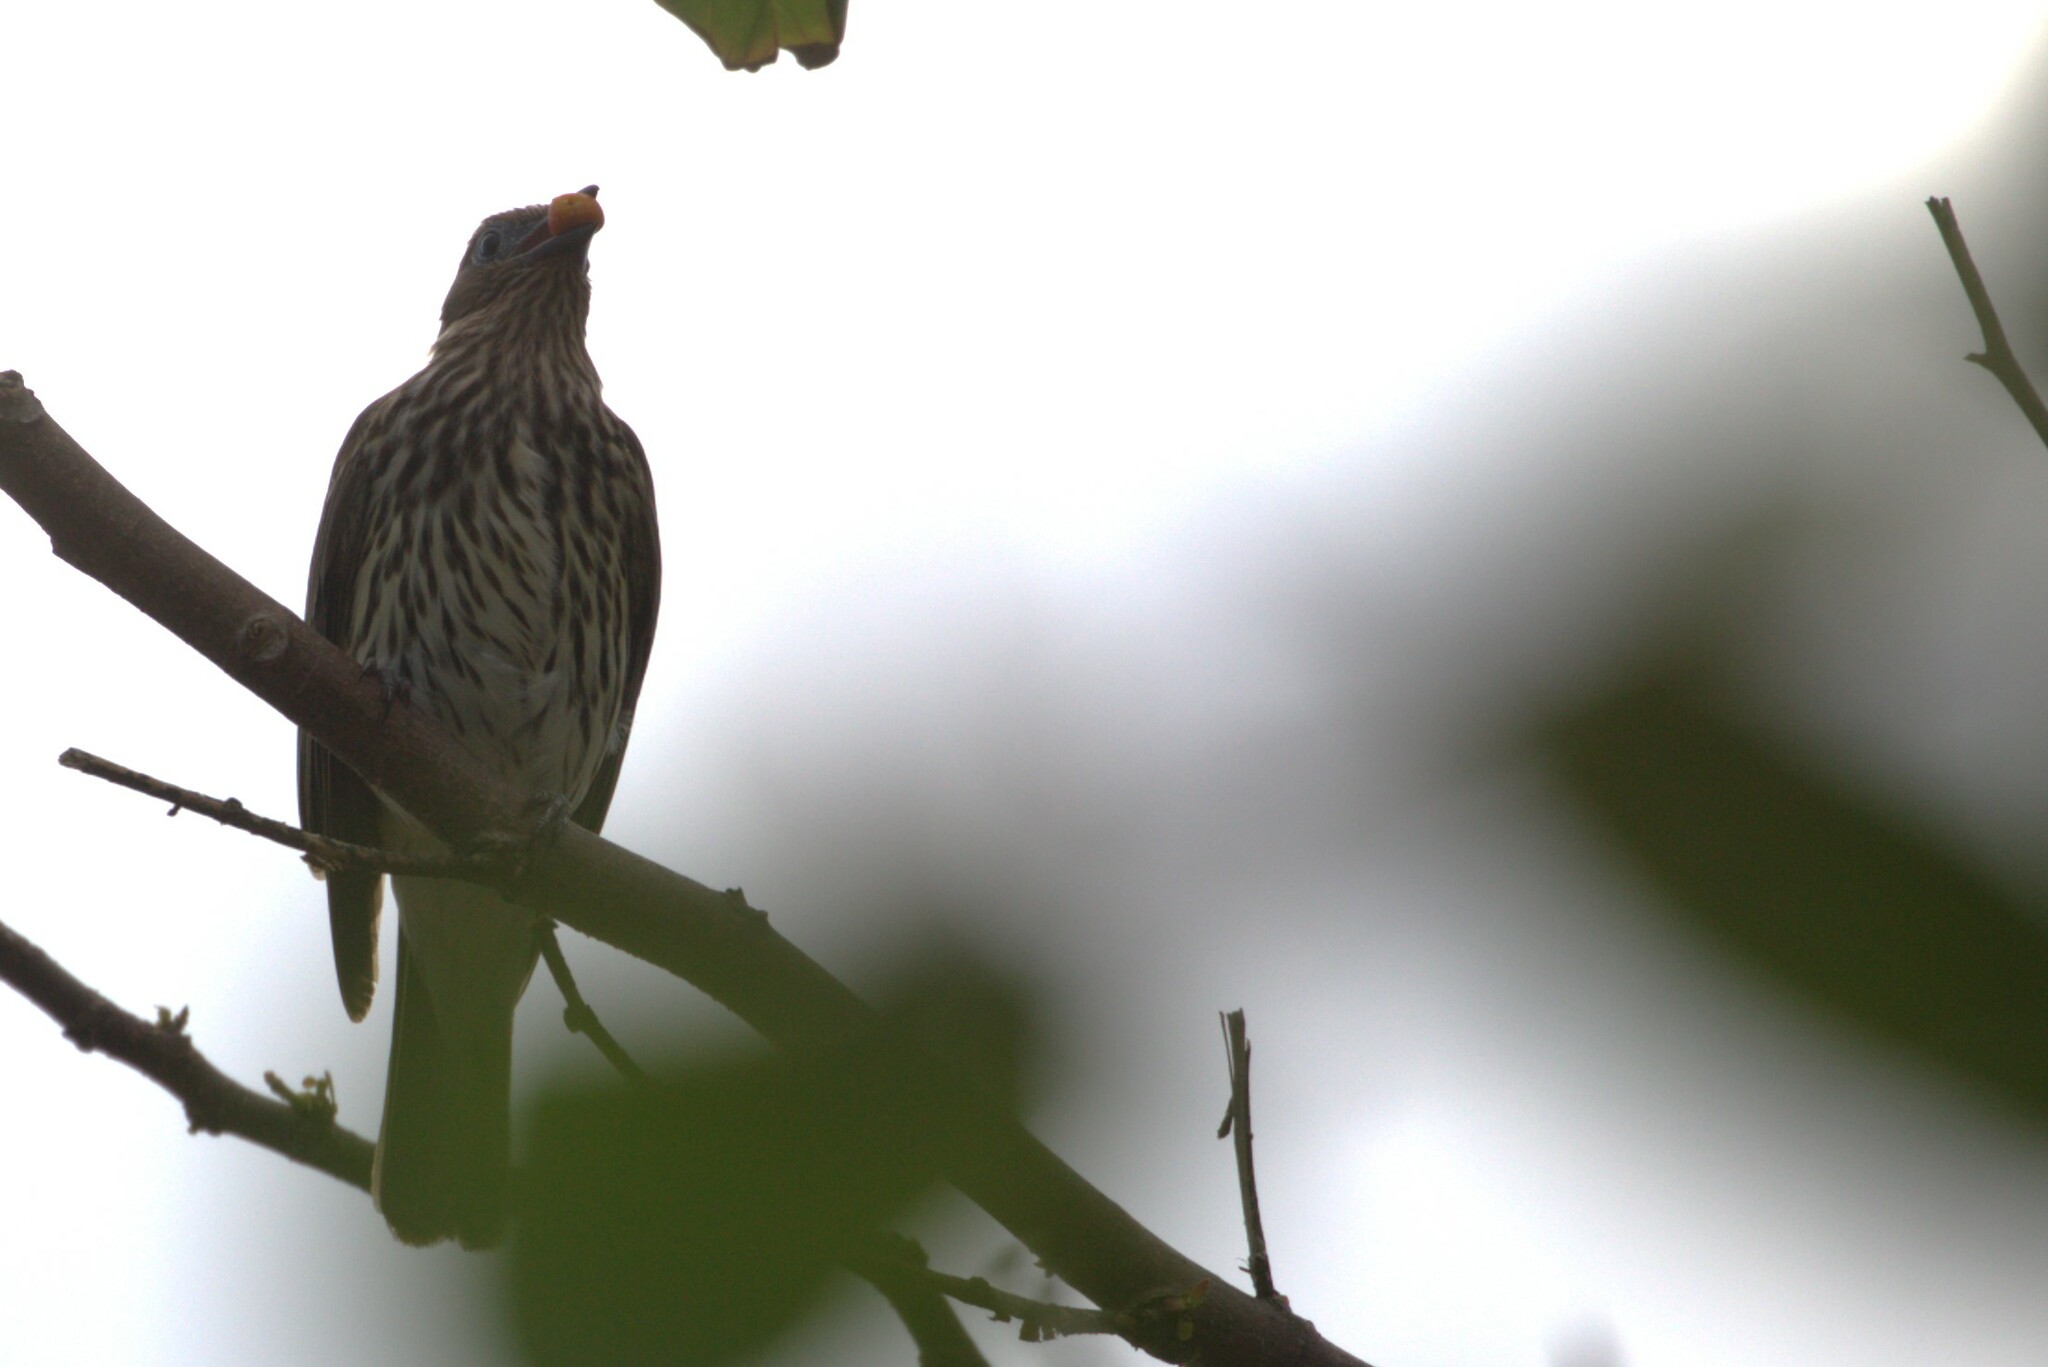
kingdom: Animalia
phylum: Chordata
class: Aves
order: Passeriformes
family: Oriolidae
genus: Sphecotheres
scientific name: Sphecotheres vieilloti
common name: Australasian figbird
